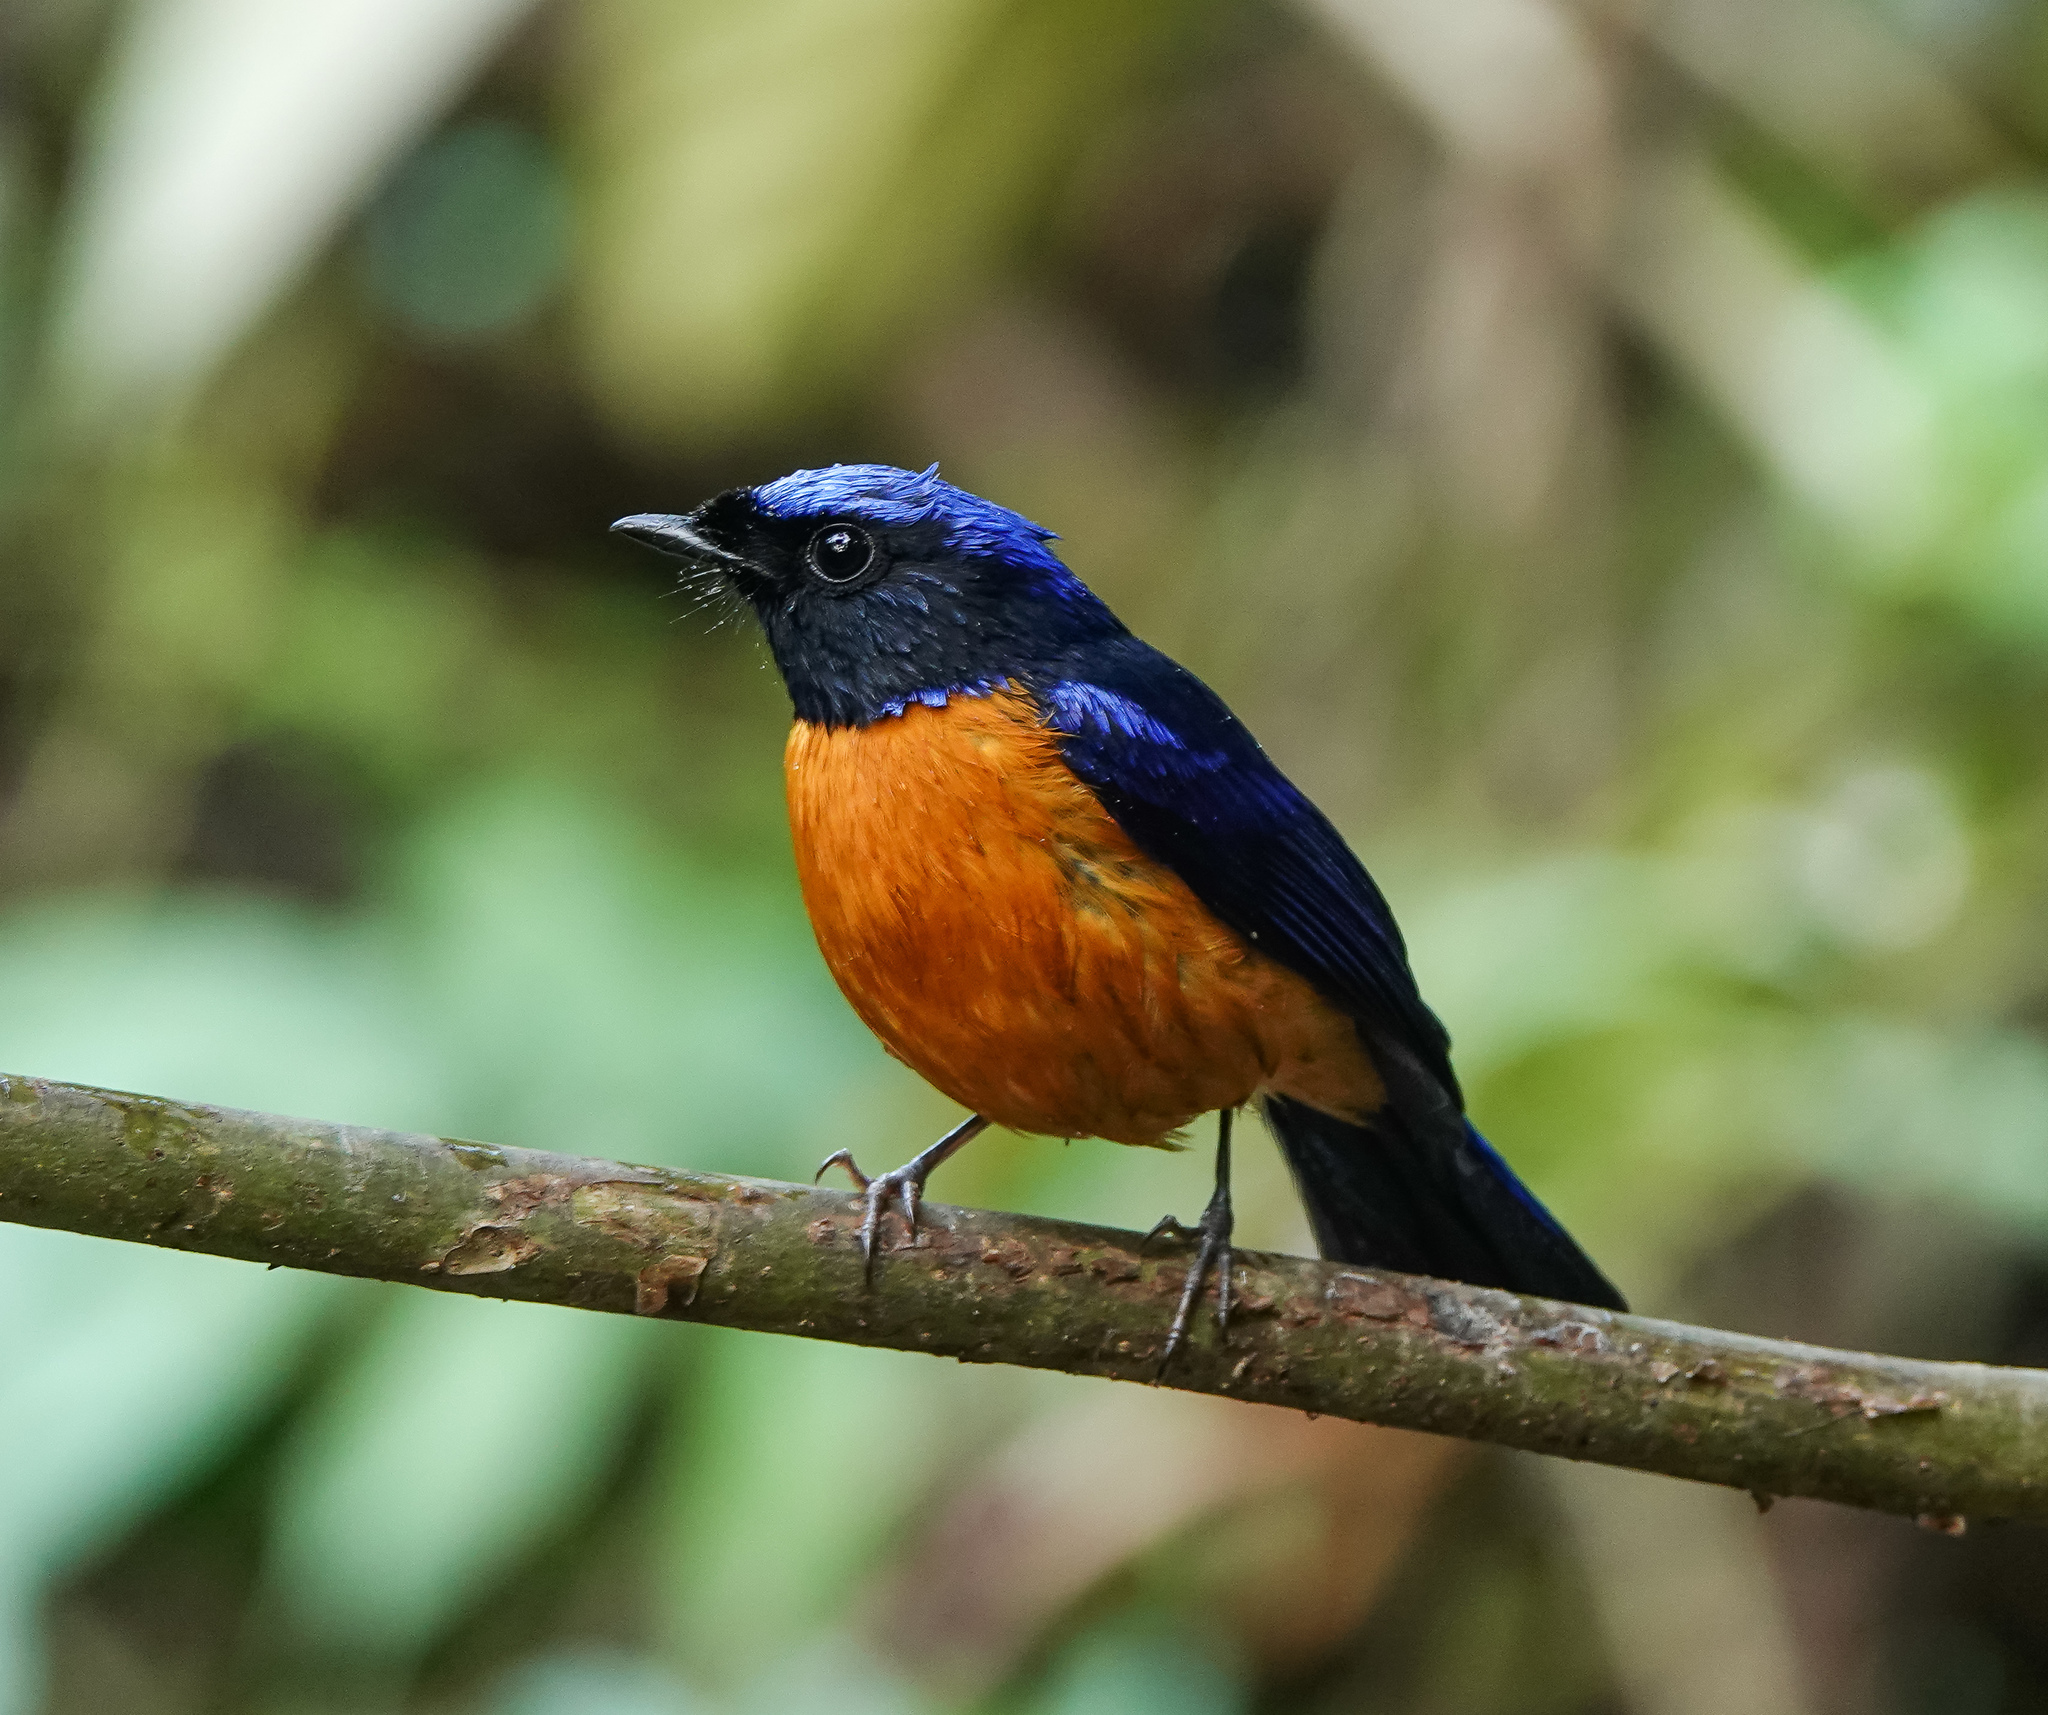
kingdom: Animalia
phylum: Chordata
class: Aves
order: Passeriformes
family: Muscicapidae
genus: Niltava
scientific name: Niltava sundara
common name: Rufous-bellied niltava
